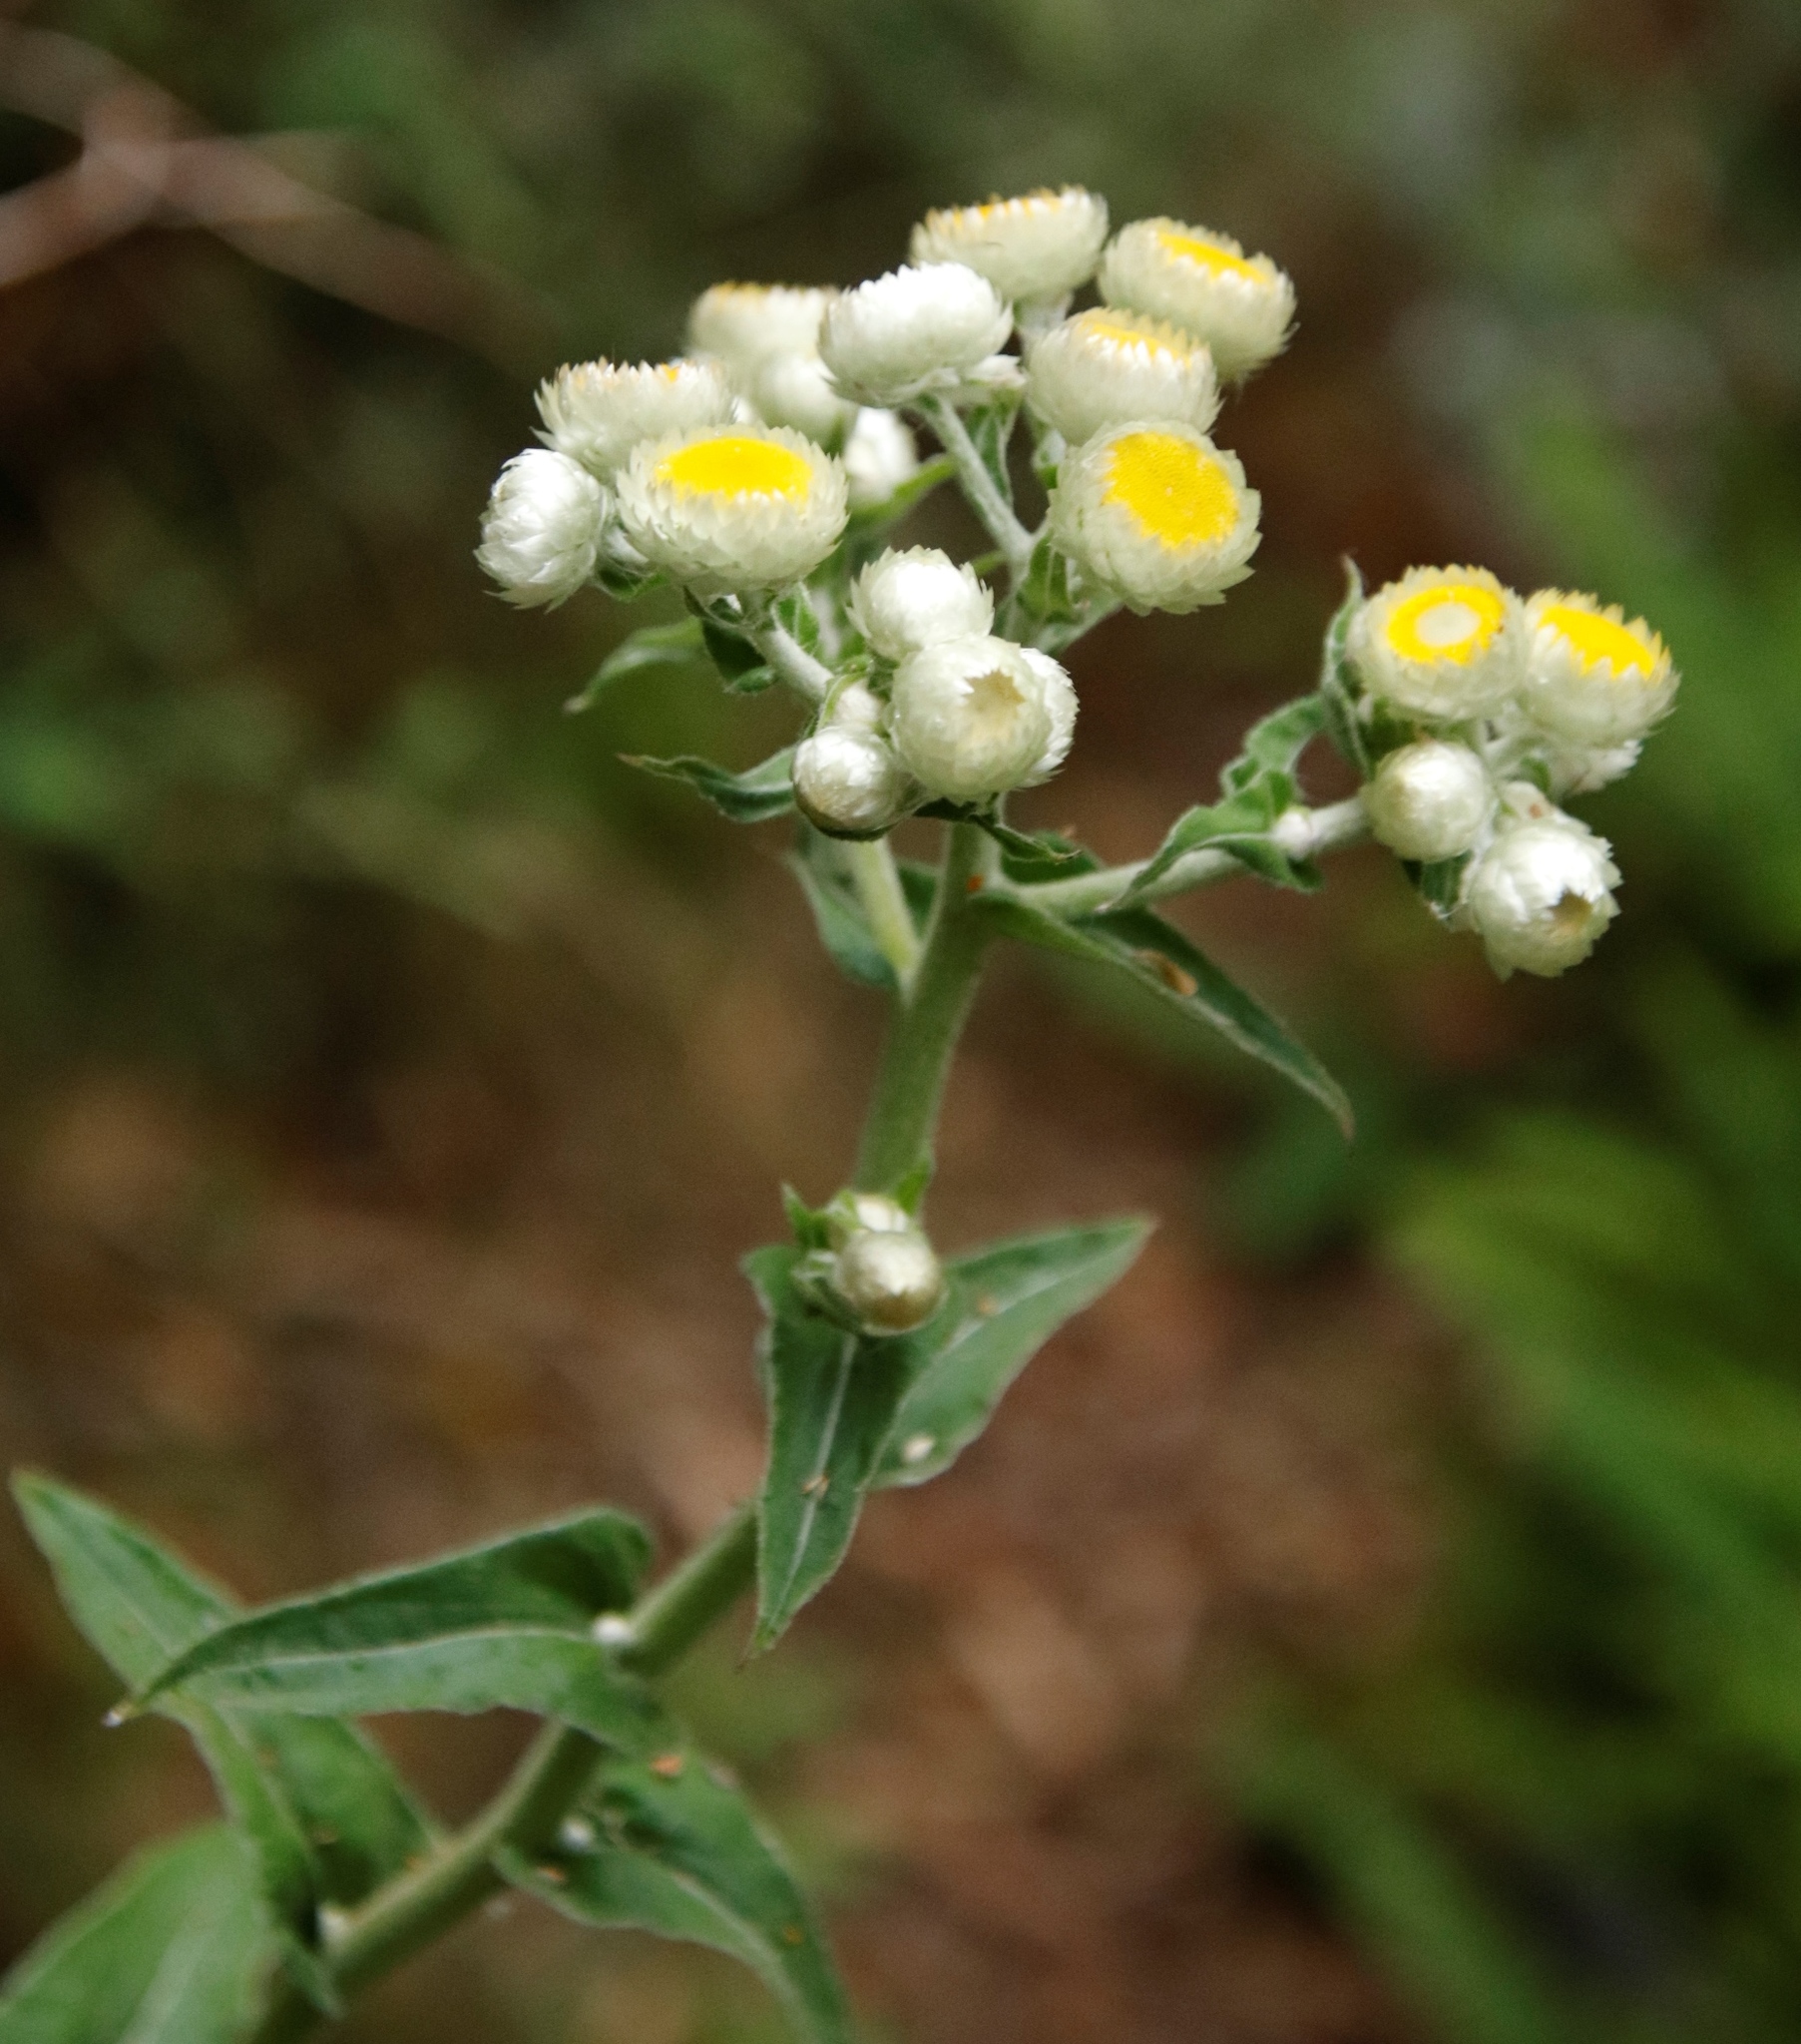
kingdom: Plantae
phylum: Tracheophyta
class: Magnoliopsida
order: Asterales
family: Asteraceae
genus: Helichrysum
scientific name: Helichrysum foetidum
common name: Stinking everlasting
